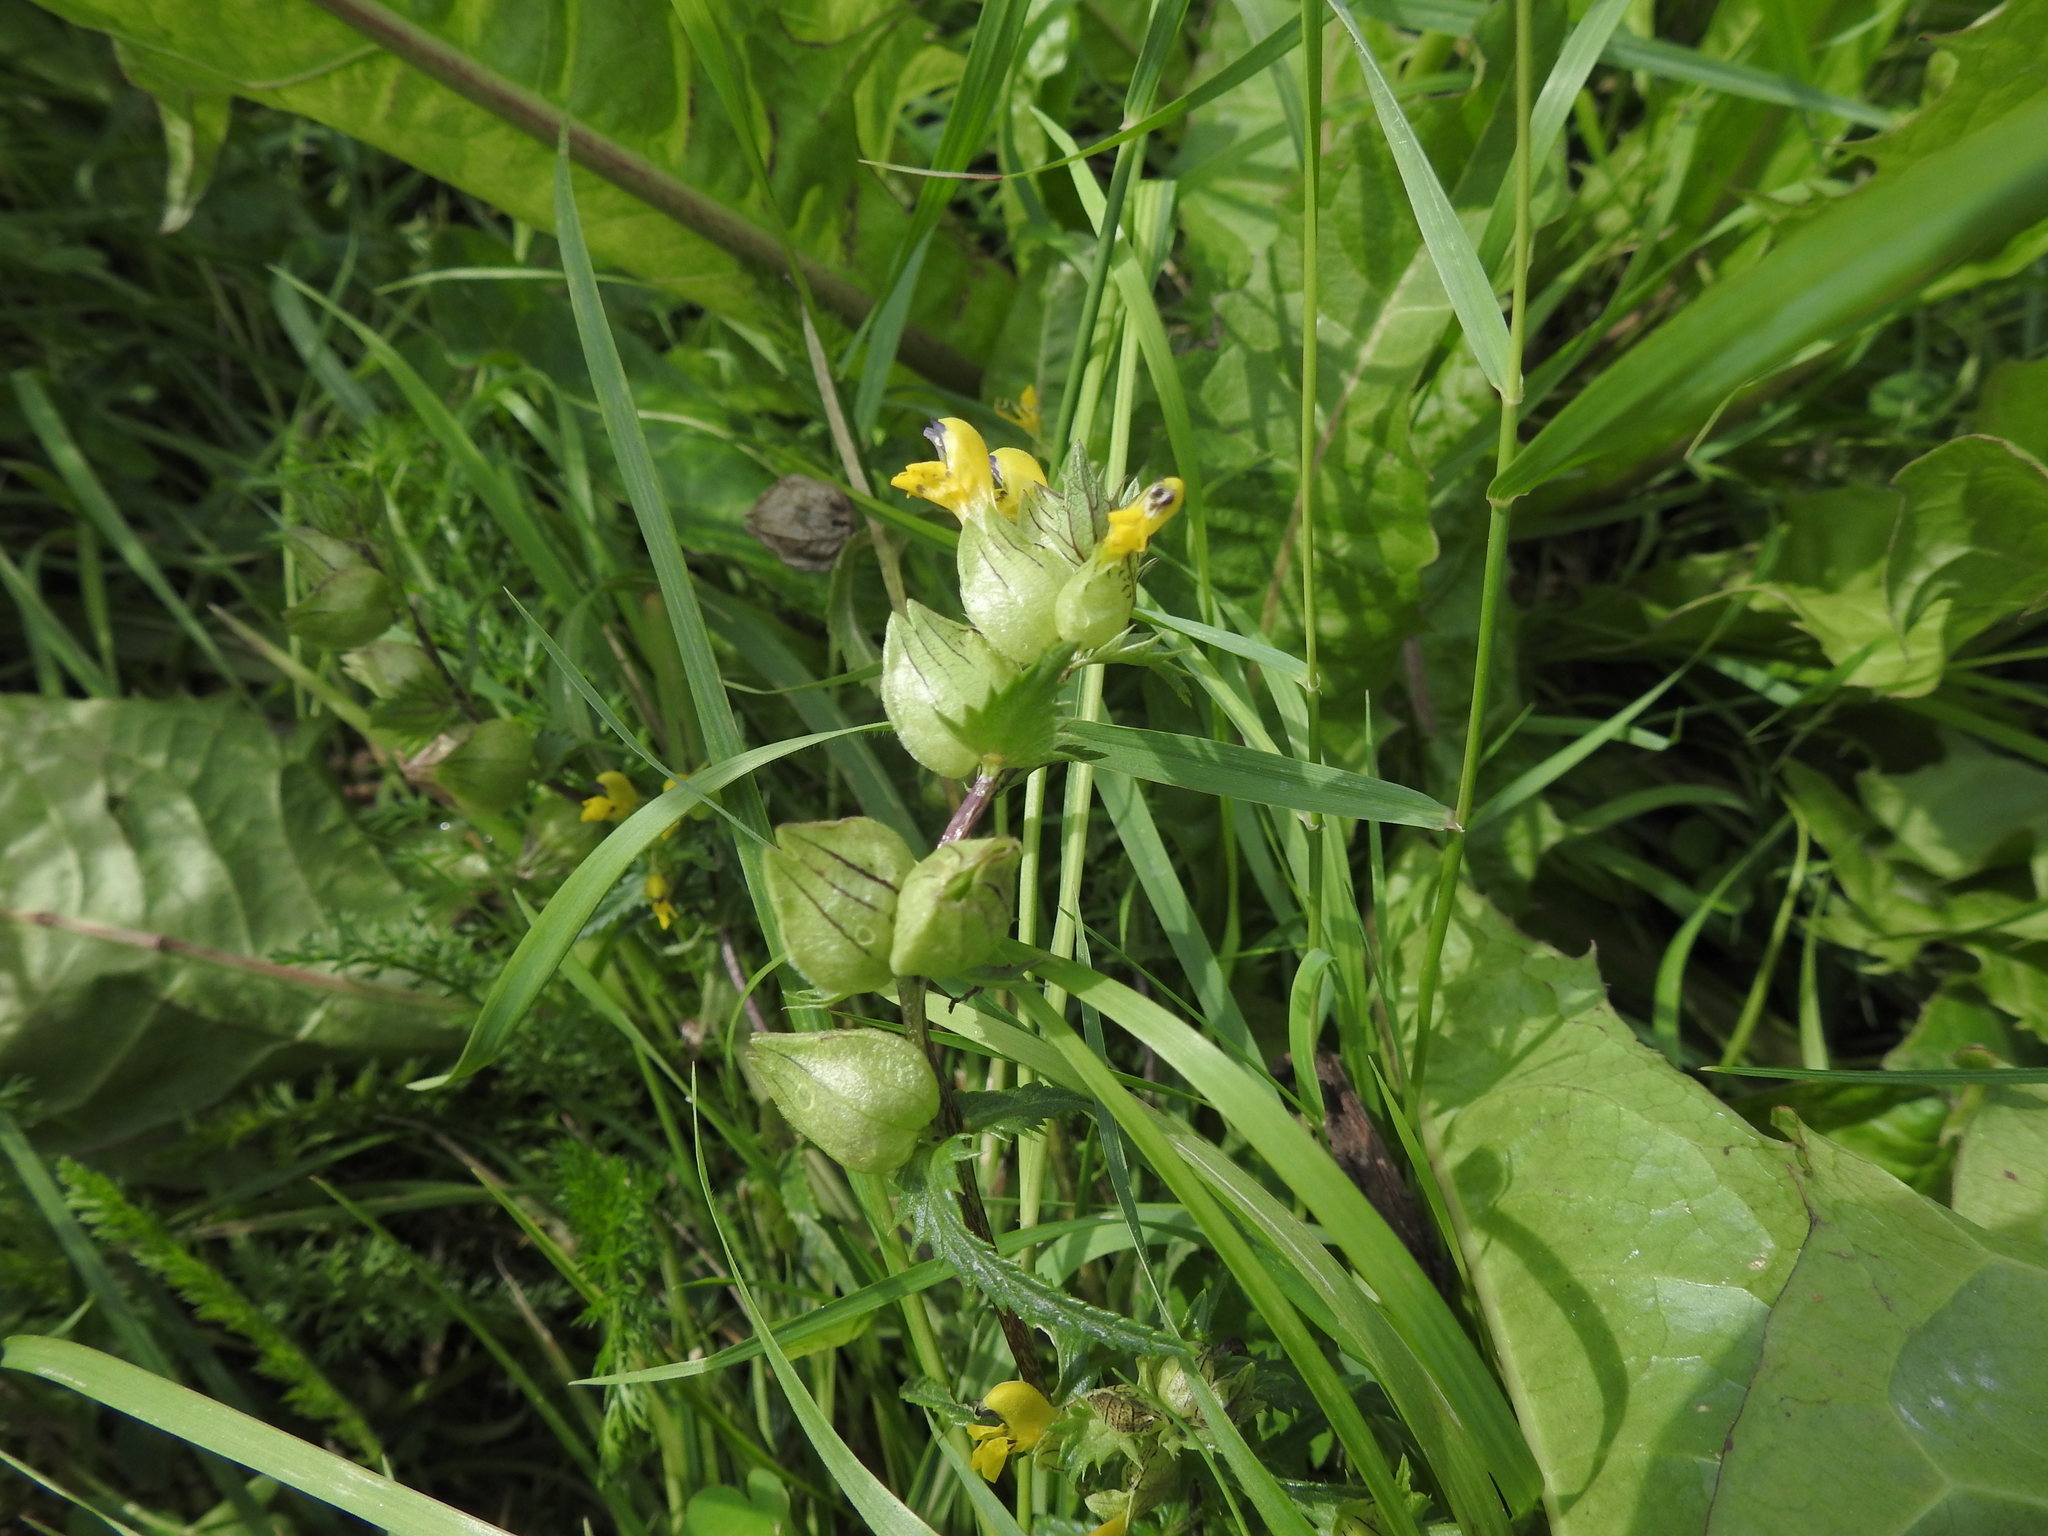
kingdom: Plantae
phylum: Tracheophyta
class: Magnoliopsida
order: Lamiales
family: Orobanchaceae
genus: Rhinanthus
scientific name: Rhinanthus minor
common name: Yellow-rattle
